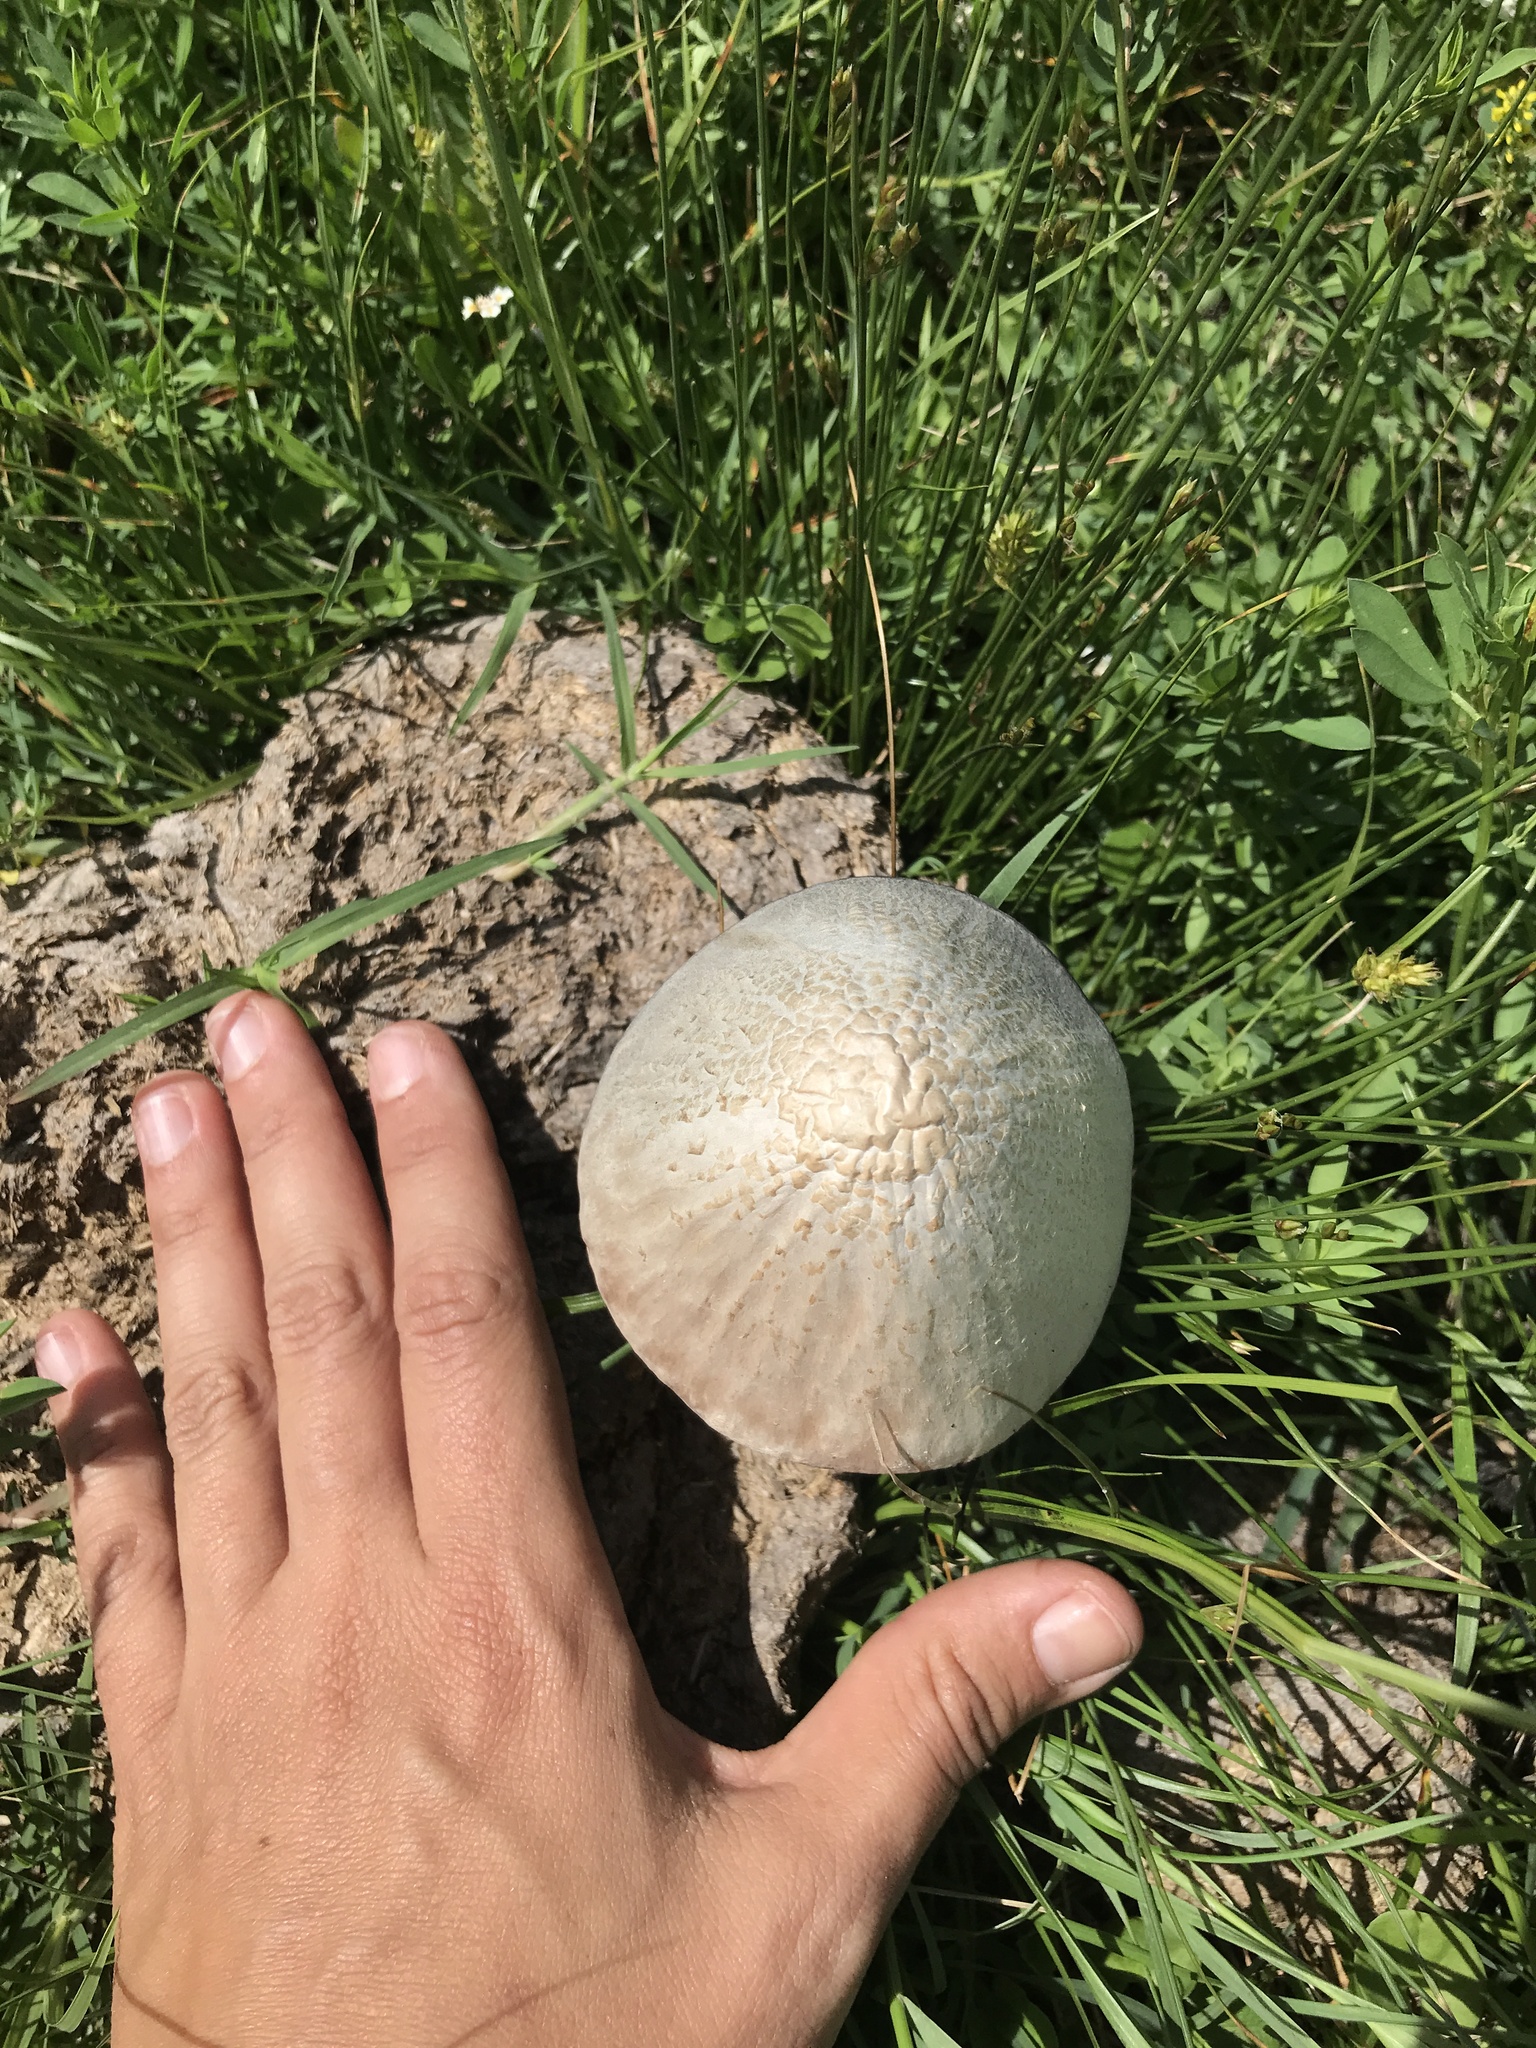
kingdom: Fungi
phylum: Basidiomycota
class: Agaricomycetes
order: Agaricales
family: Bolbitiaceae
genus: Panaeolus
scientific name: Panaeolus antillarum
